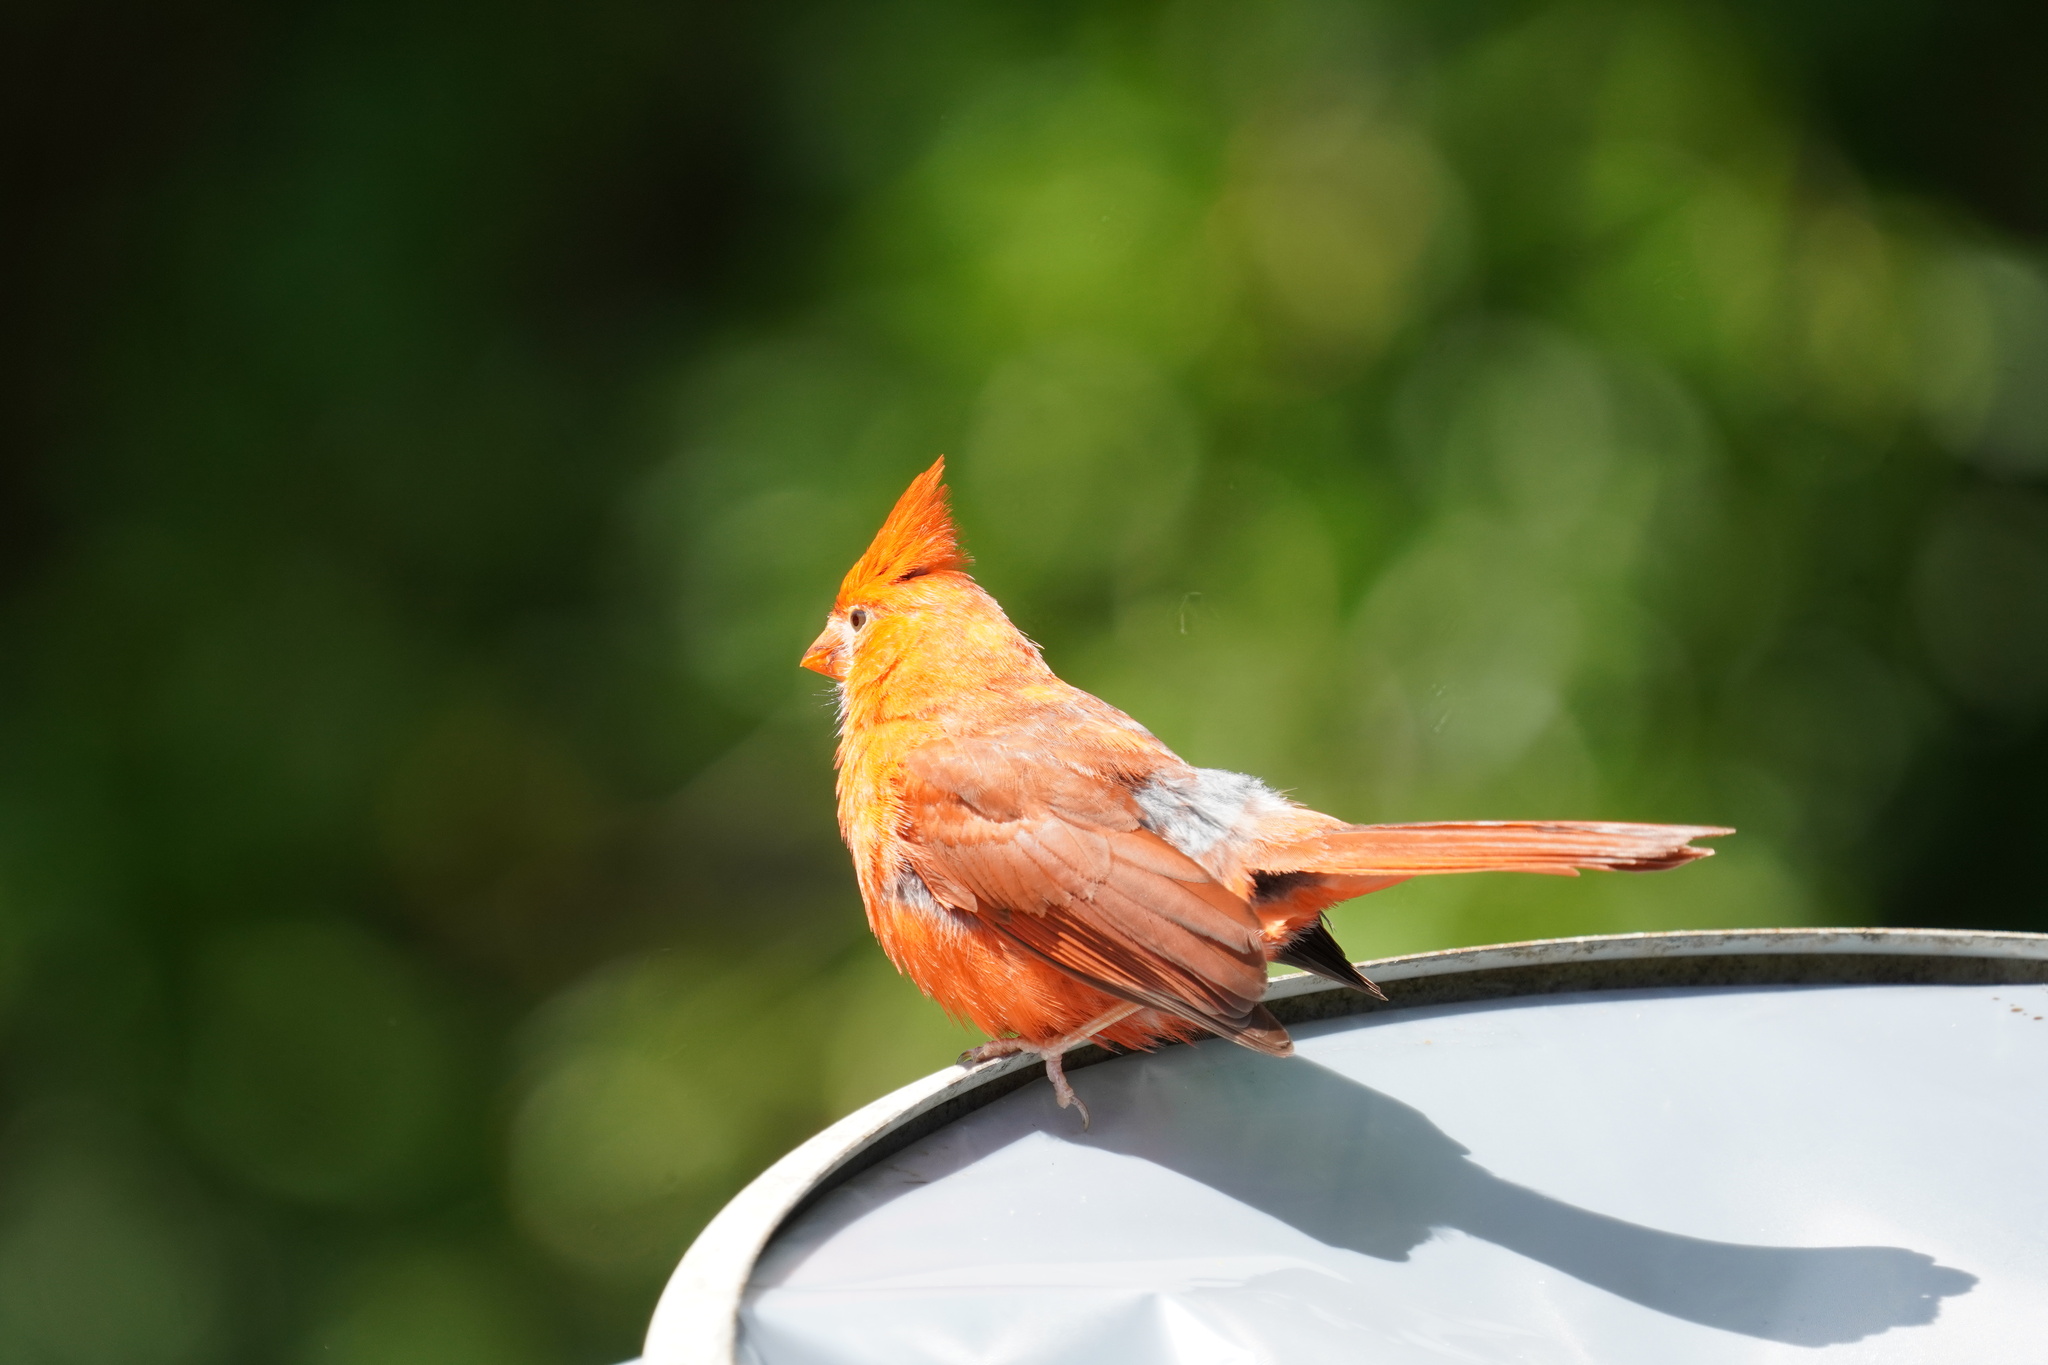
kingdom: Animalia
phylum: Chordata
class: Aves
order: Passeriformes
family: Cardinalidae
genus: Cardinalis
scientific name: Cardinalis cardinalis
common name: Northern cardinal
